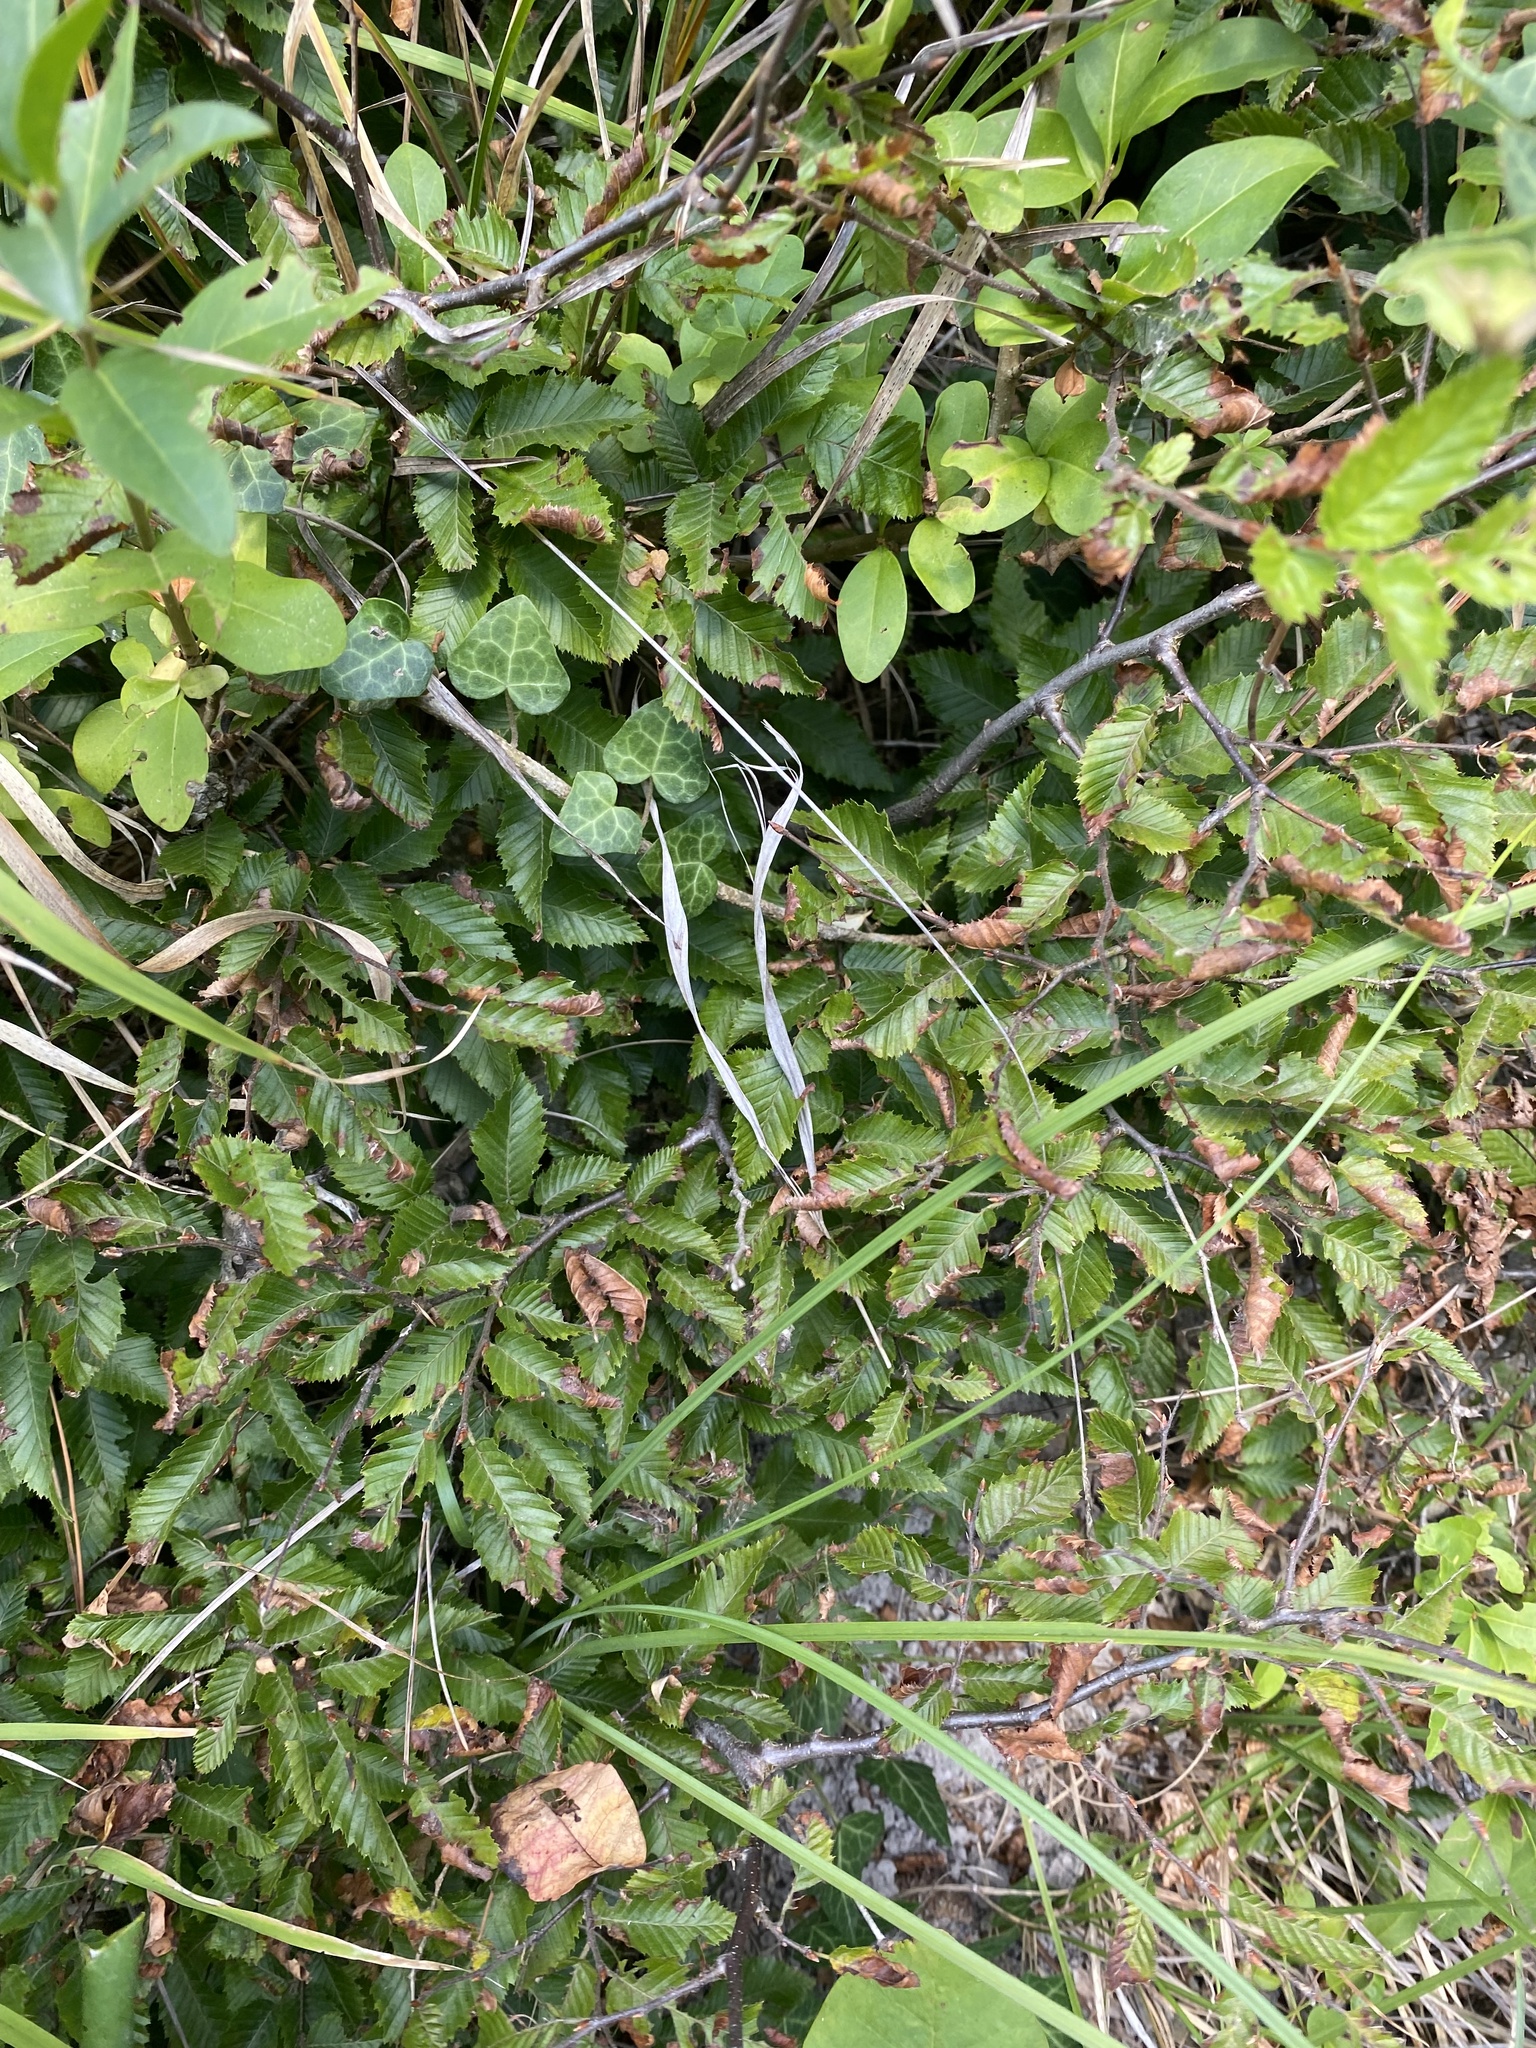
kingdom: Plantae
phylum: Tracheophyta
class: Magnoliopsida
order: Fagales
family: Betulaceae
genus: Carpinus
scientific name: Carpinus orientalis
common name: Eastern hornbeam
